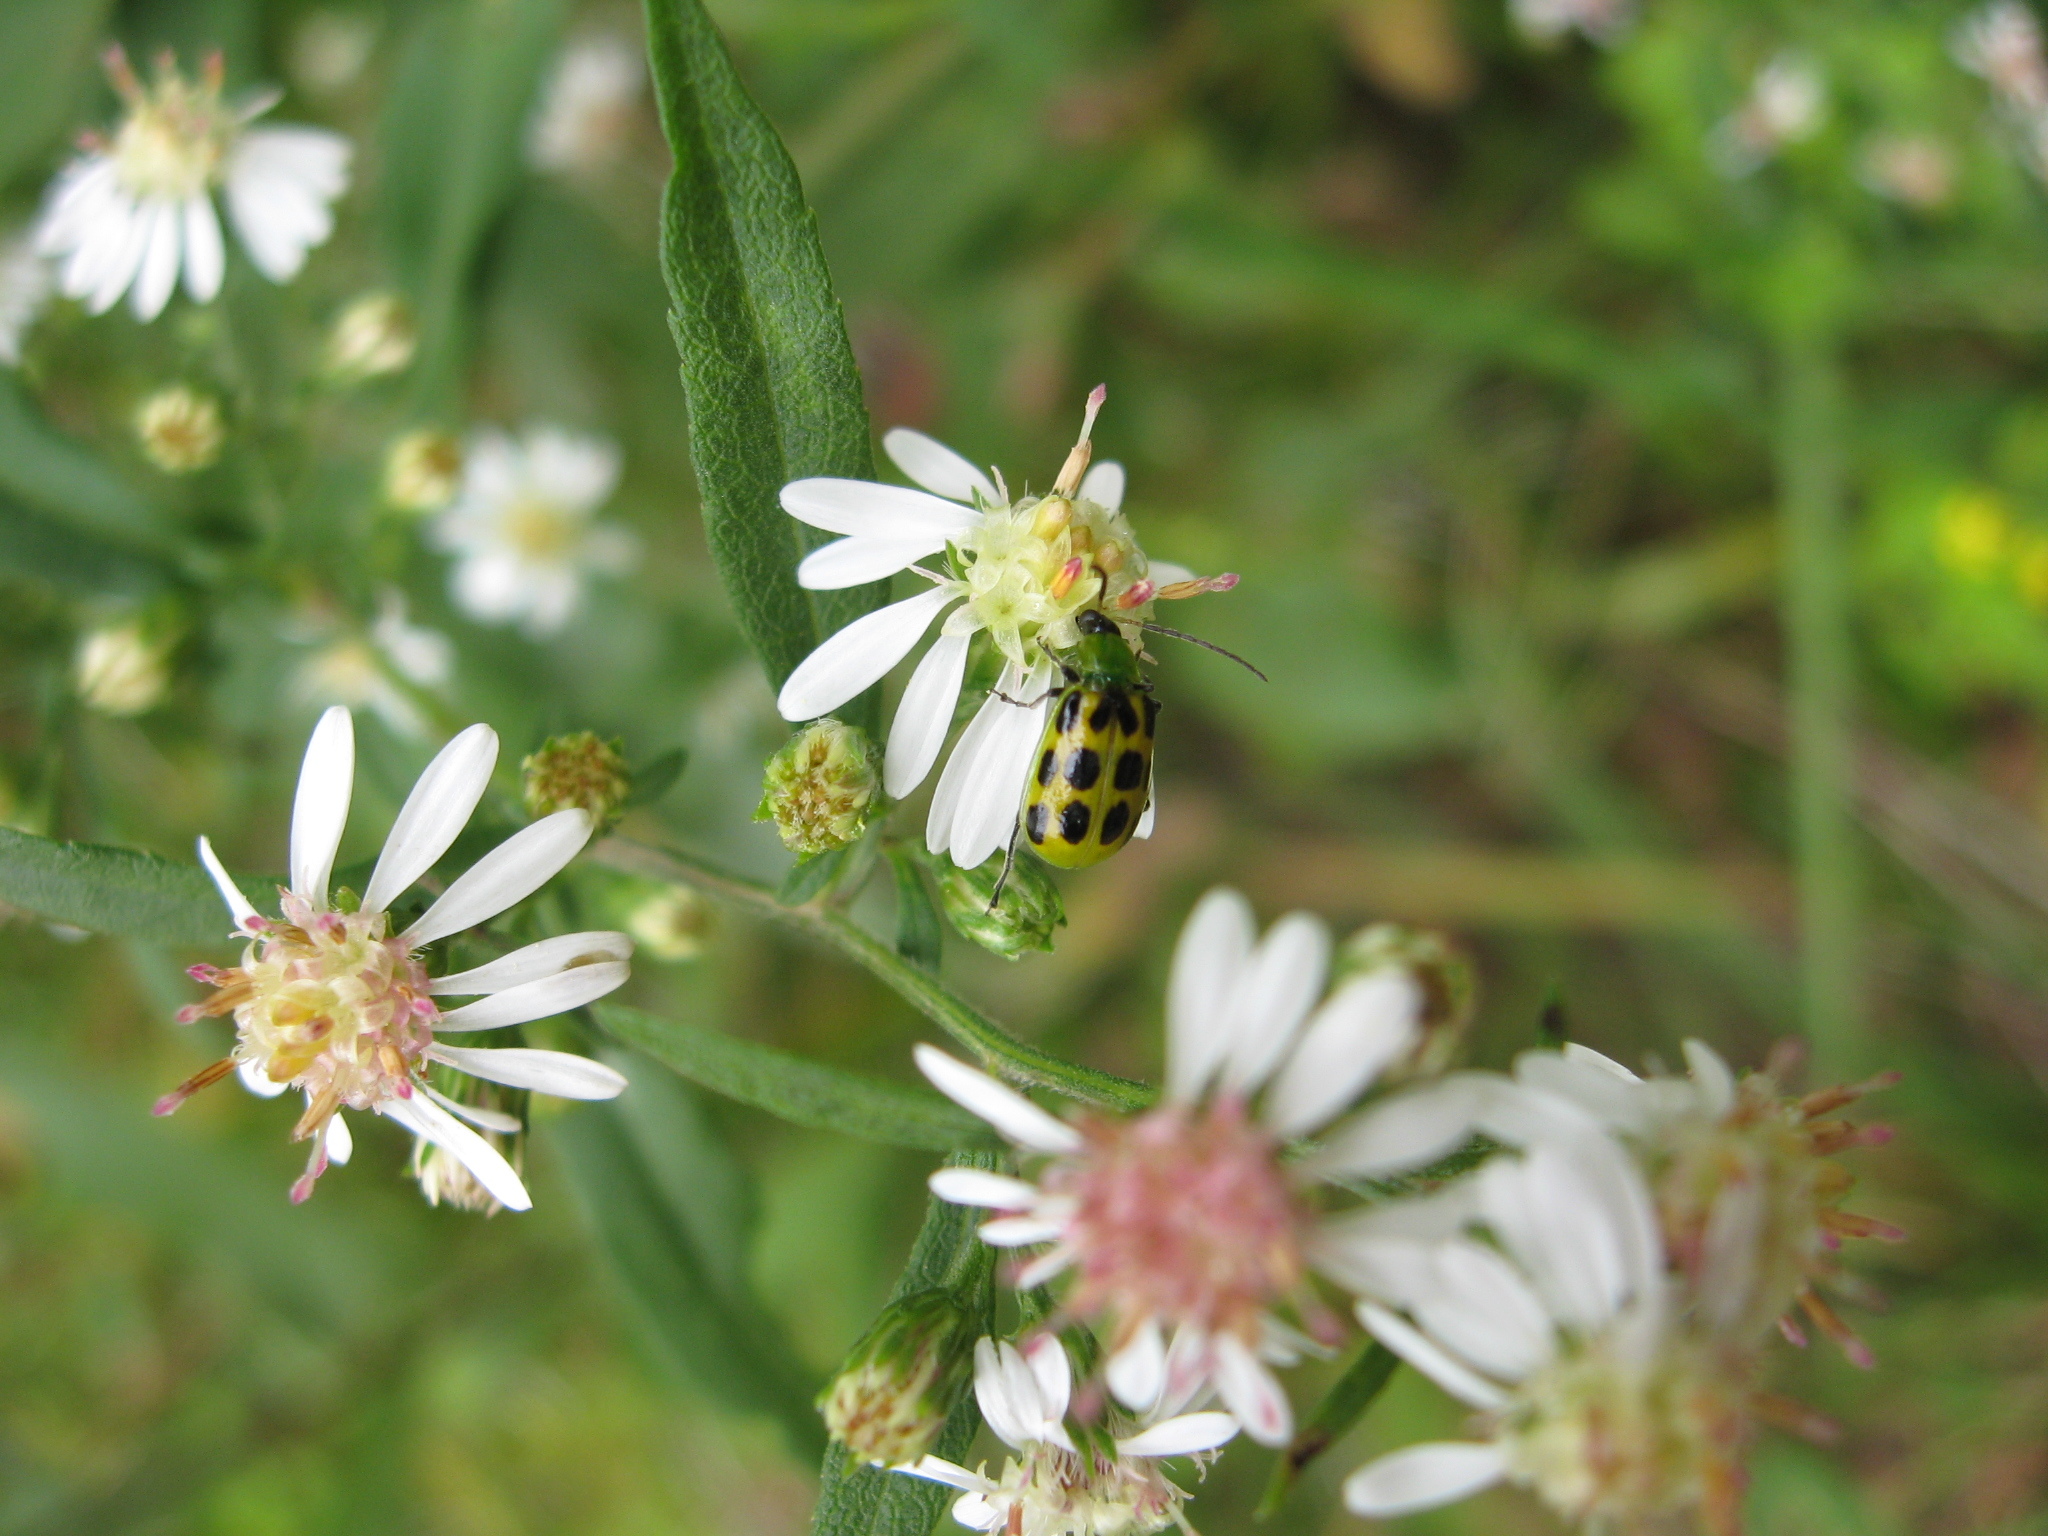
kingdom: Animalia
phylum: Arthropoda
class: Insecta
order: Coleoptera
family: Chrysomelidae
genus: Diabrotica
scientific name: Diabrotica undecimpunctata
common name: Spotted cucumber beetle
